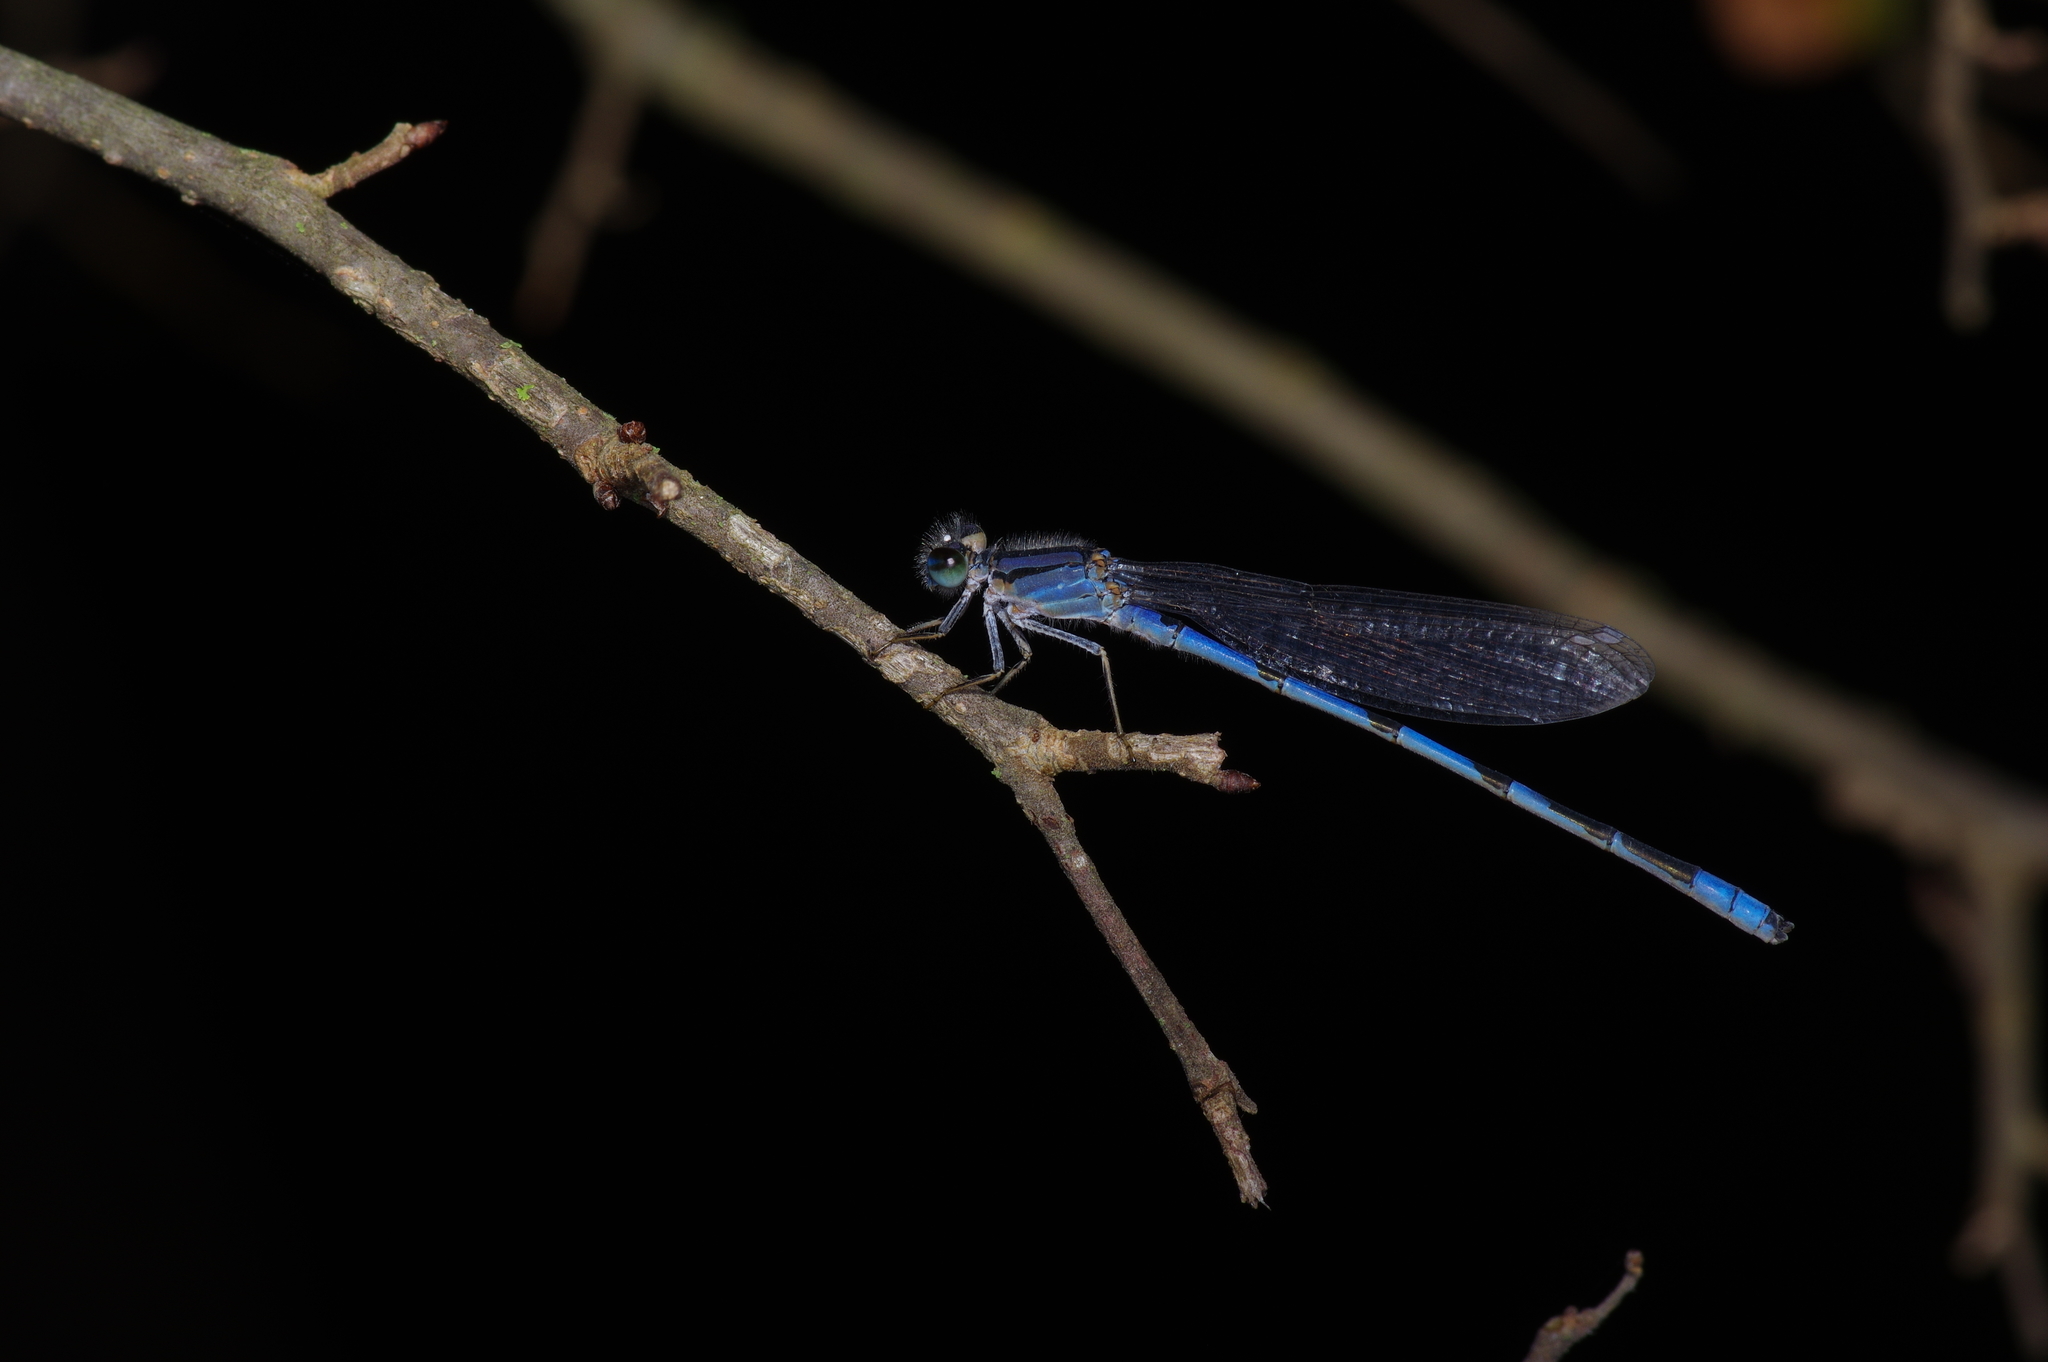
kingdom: Animalia
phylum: Arthropoda
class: Insecta
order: Odonata
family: Coenagrionidae
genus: Enallagma
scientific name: Enallagma civile
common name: Damselfly
